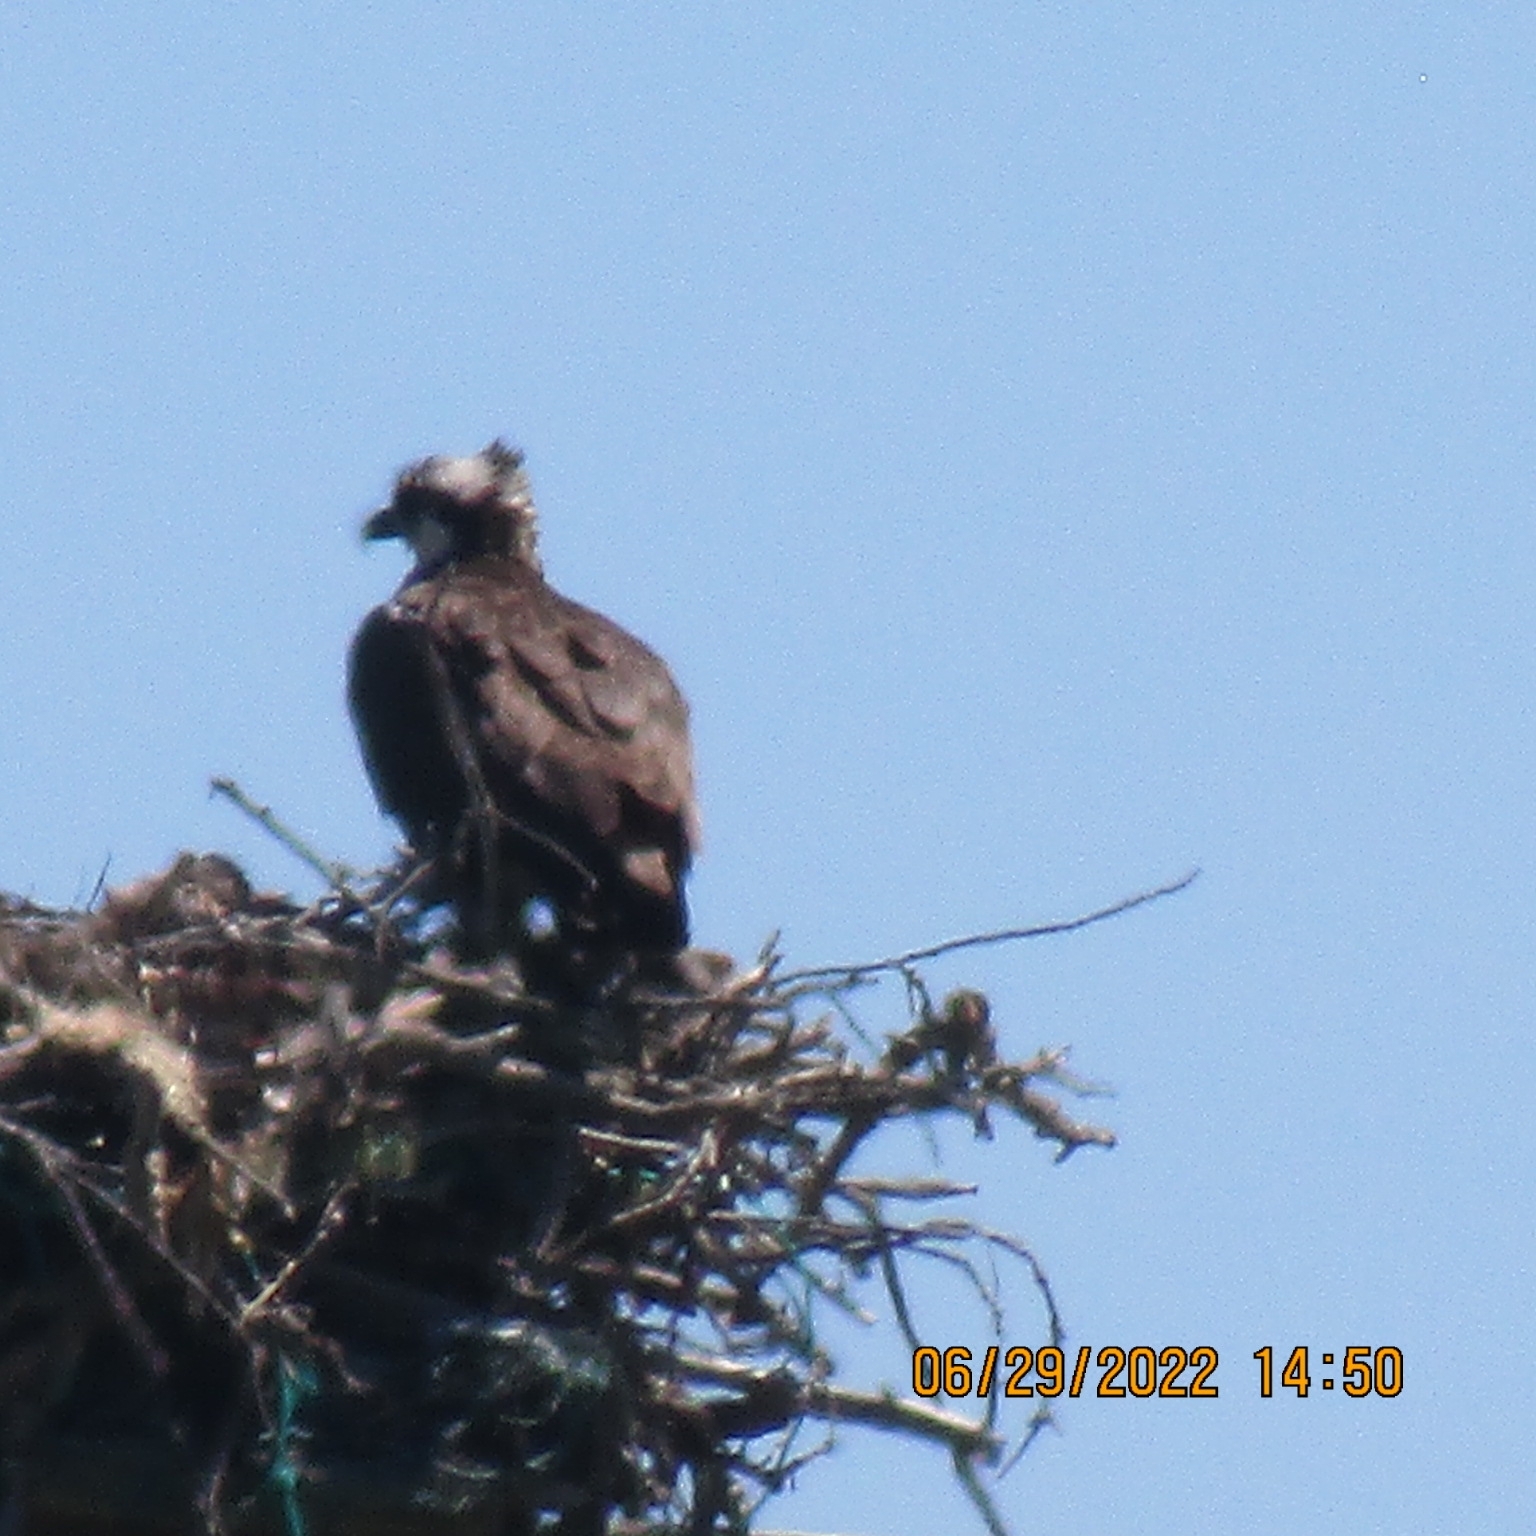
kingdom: Animalia
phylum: Chordata
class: Aves
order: Accipitriformes
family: Pandionidae
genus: Pandion
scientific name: Pandion haliaetus
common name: Osprey
